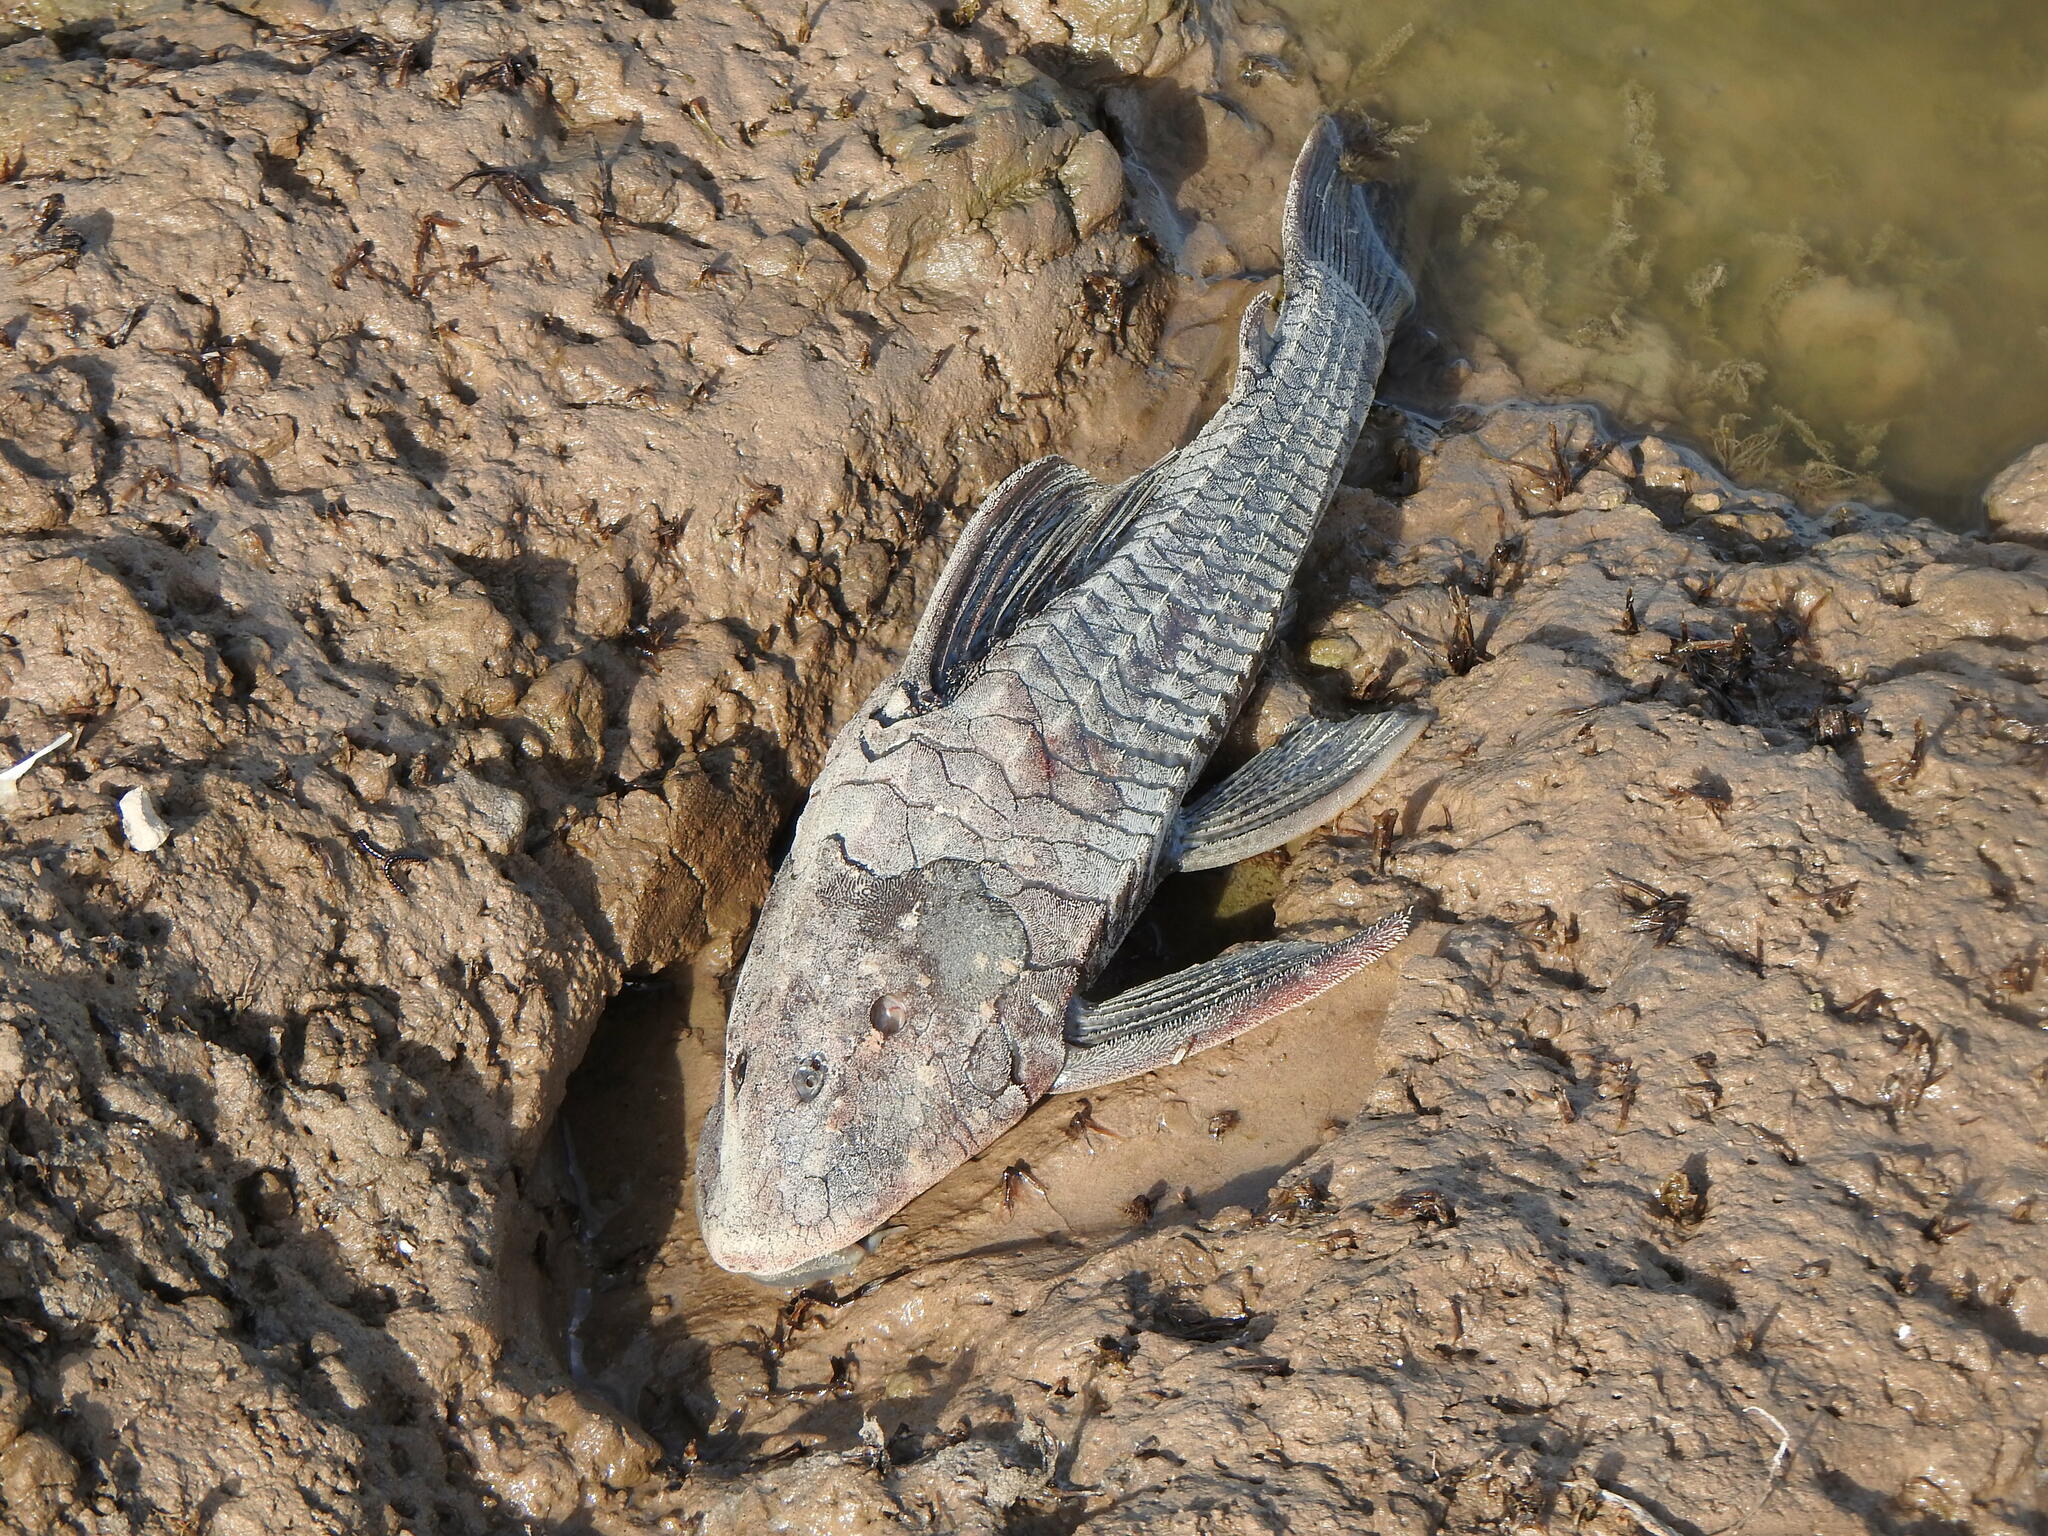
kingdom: Animalia
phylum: Chordata
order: Siluriformes
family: Loricariidae
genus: Hypostomus
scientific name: Hypostomus commersoni
